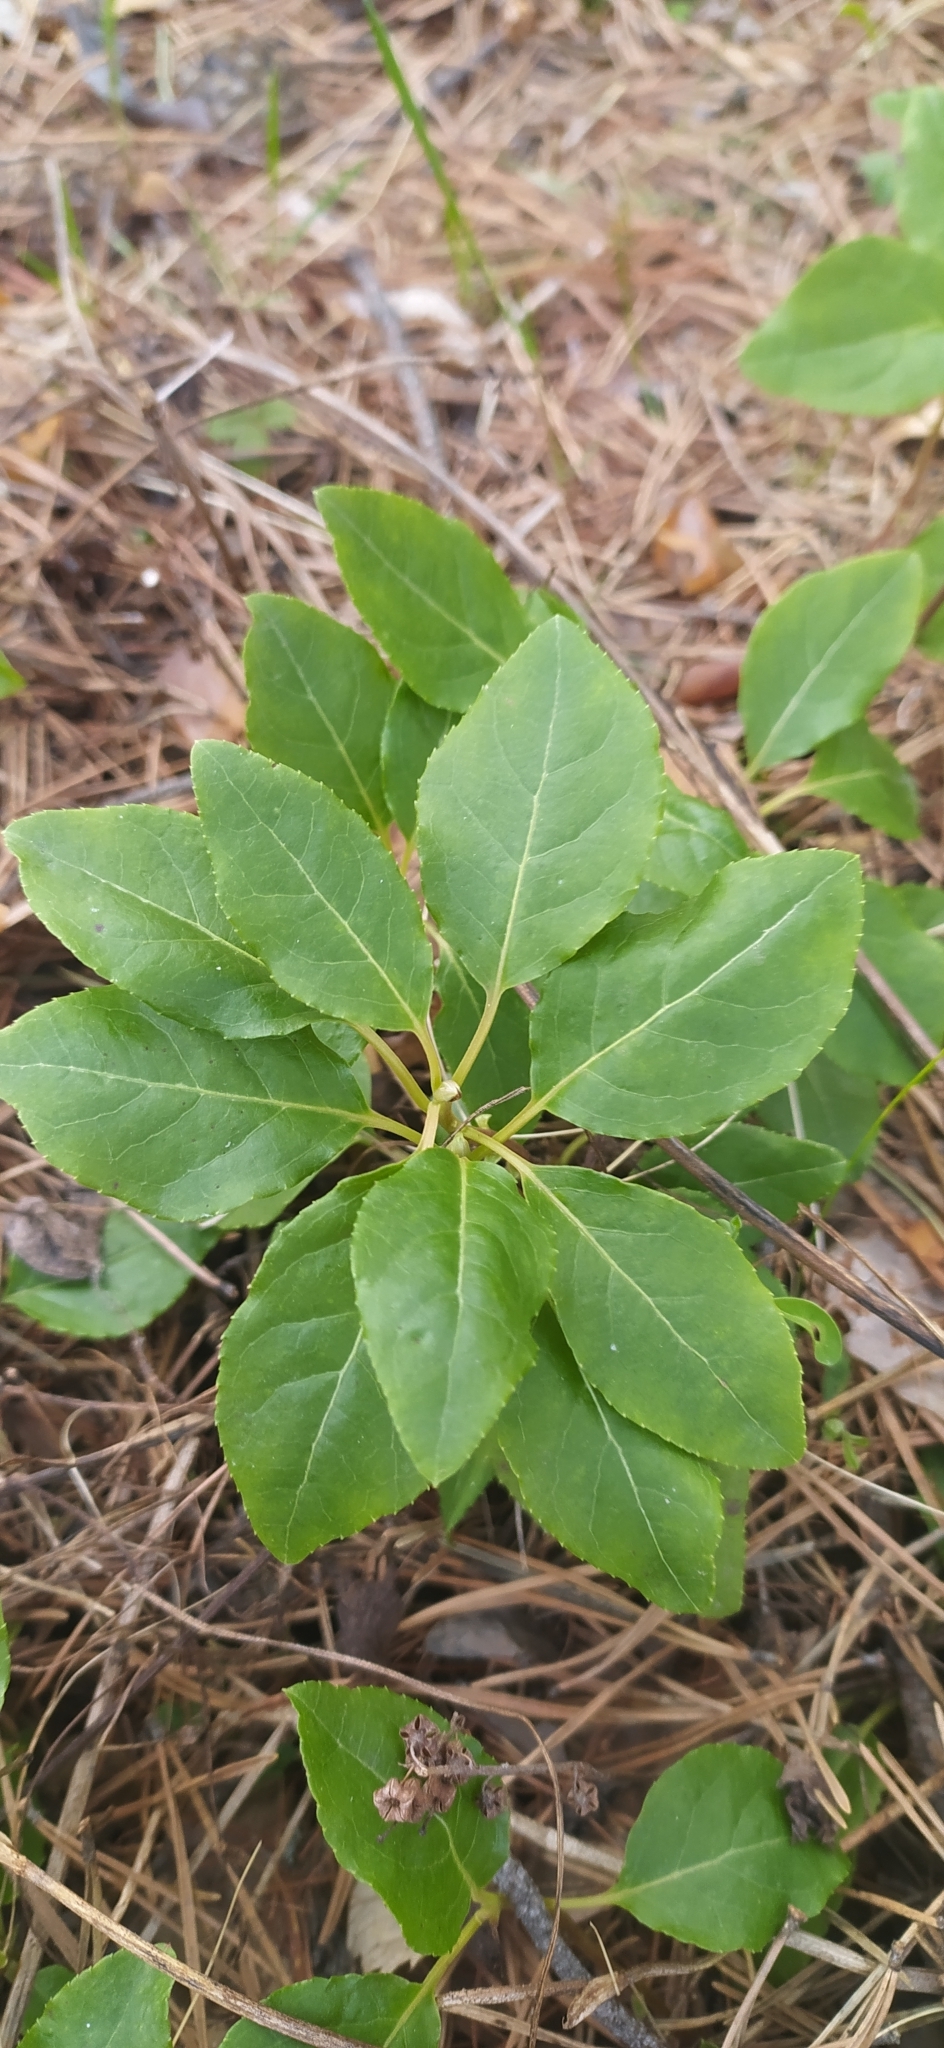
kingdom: Plantae
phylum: Tracheophyta
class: Magnoliopsida
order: Ericales
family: Ericaceae
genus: Orthilia
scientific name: Orthilia secunda
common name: One-sided orthilia
